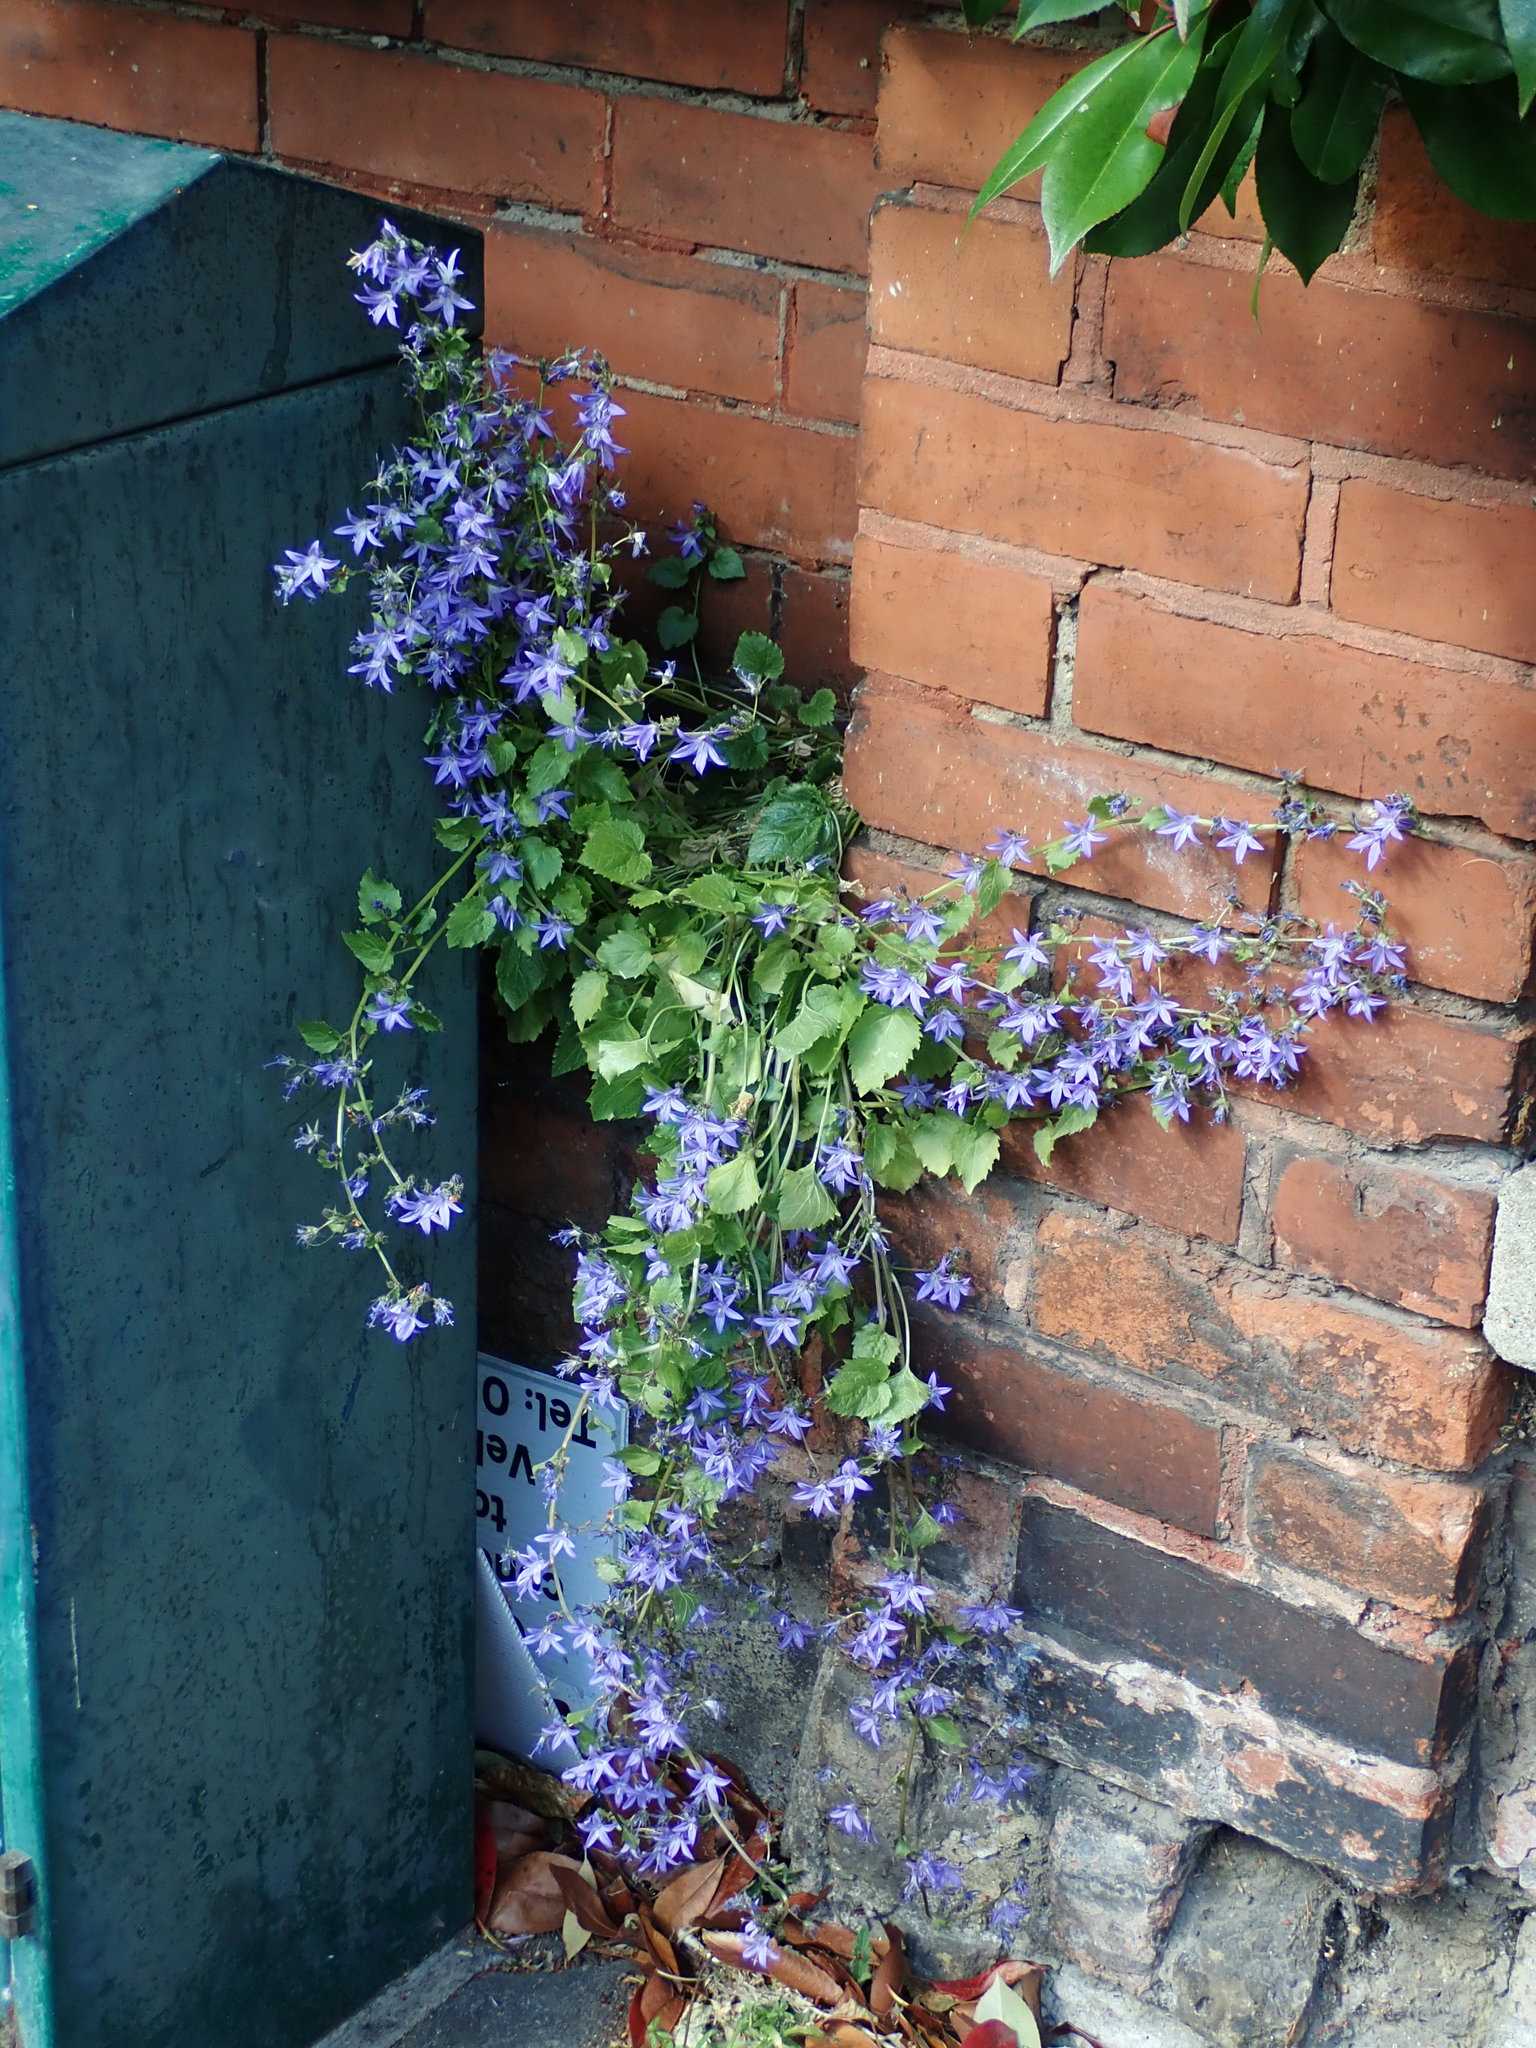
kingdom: Plantae
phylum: Tracheophyta
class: Magnoliopsida
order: Asterales
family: Campanulaceae
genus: Campanula
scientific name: Campanula poscharskyana
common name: Trailing bellflower
